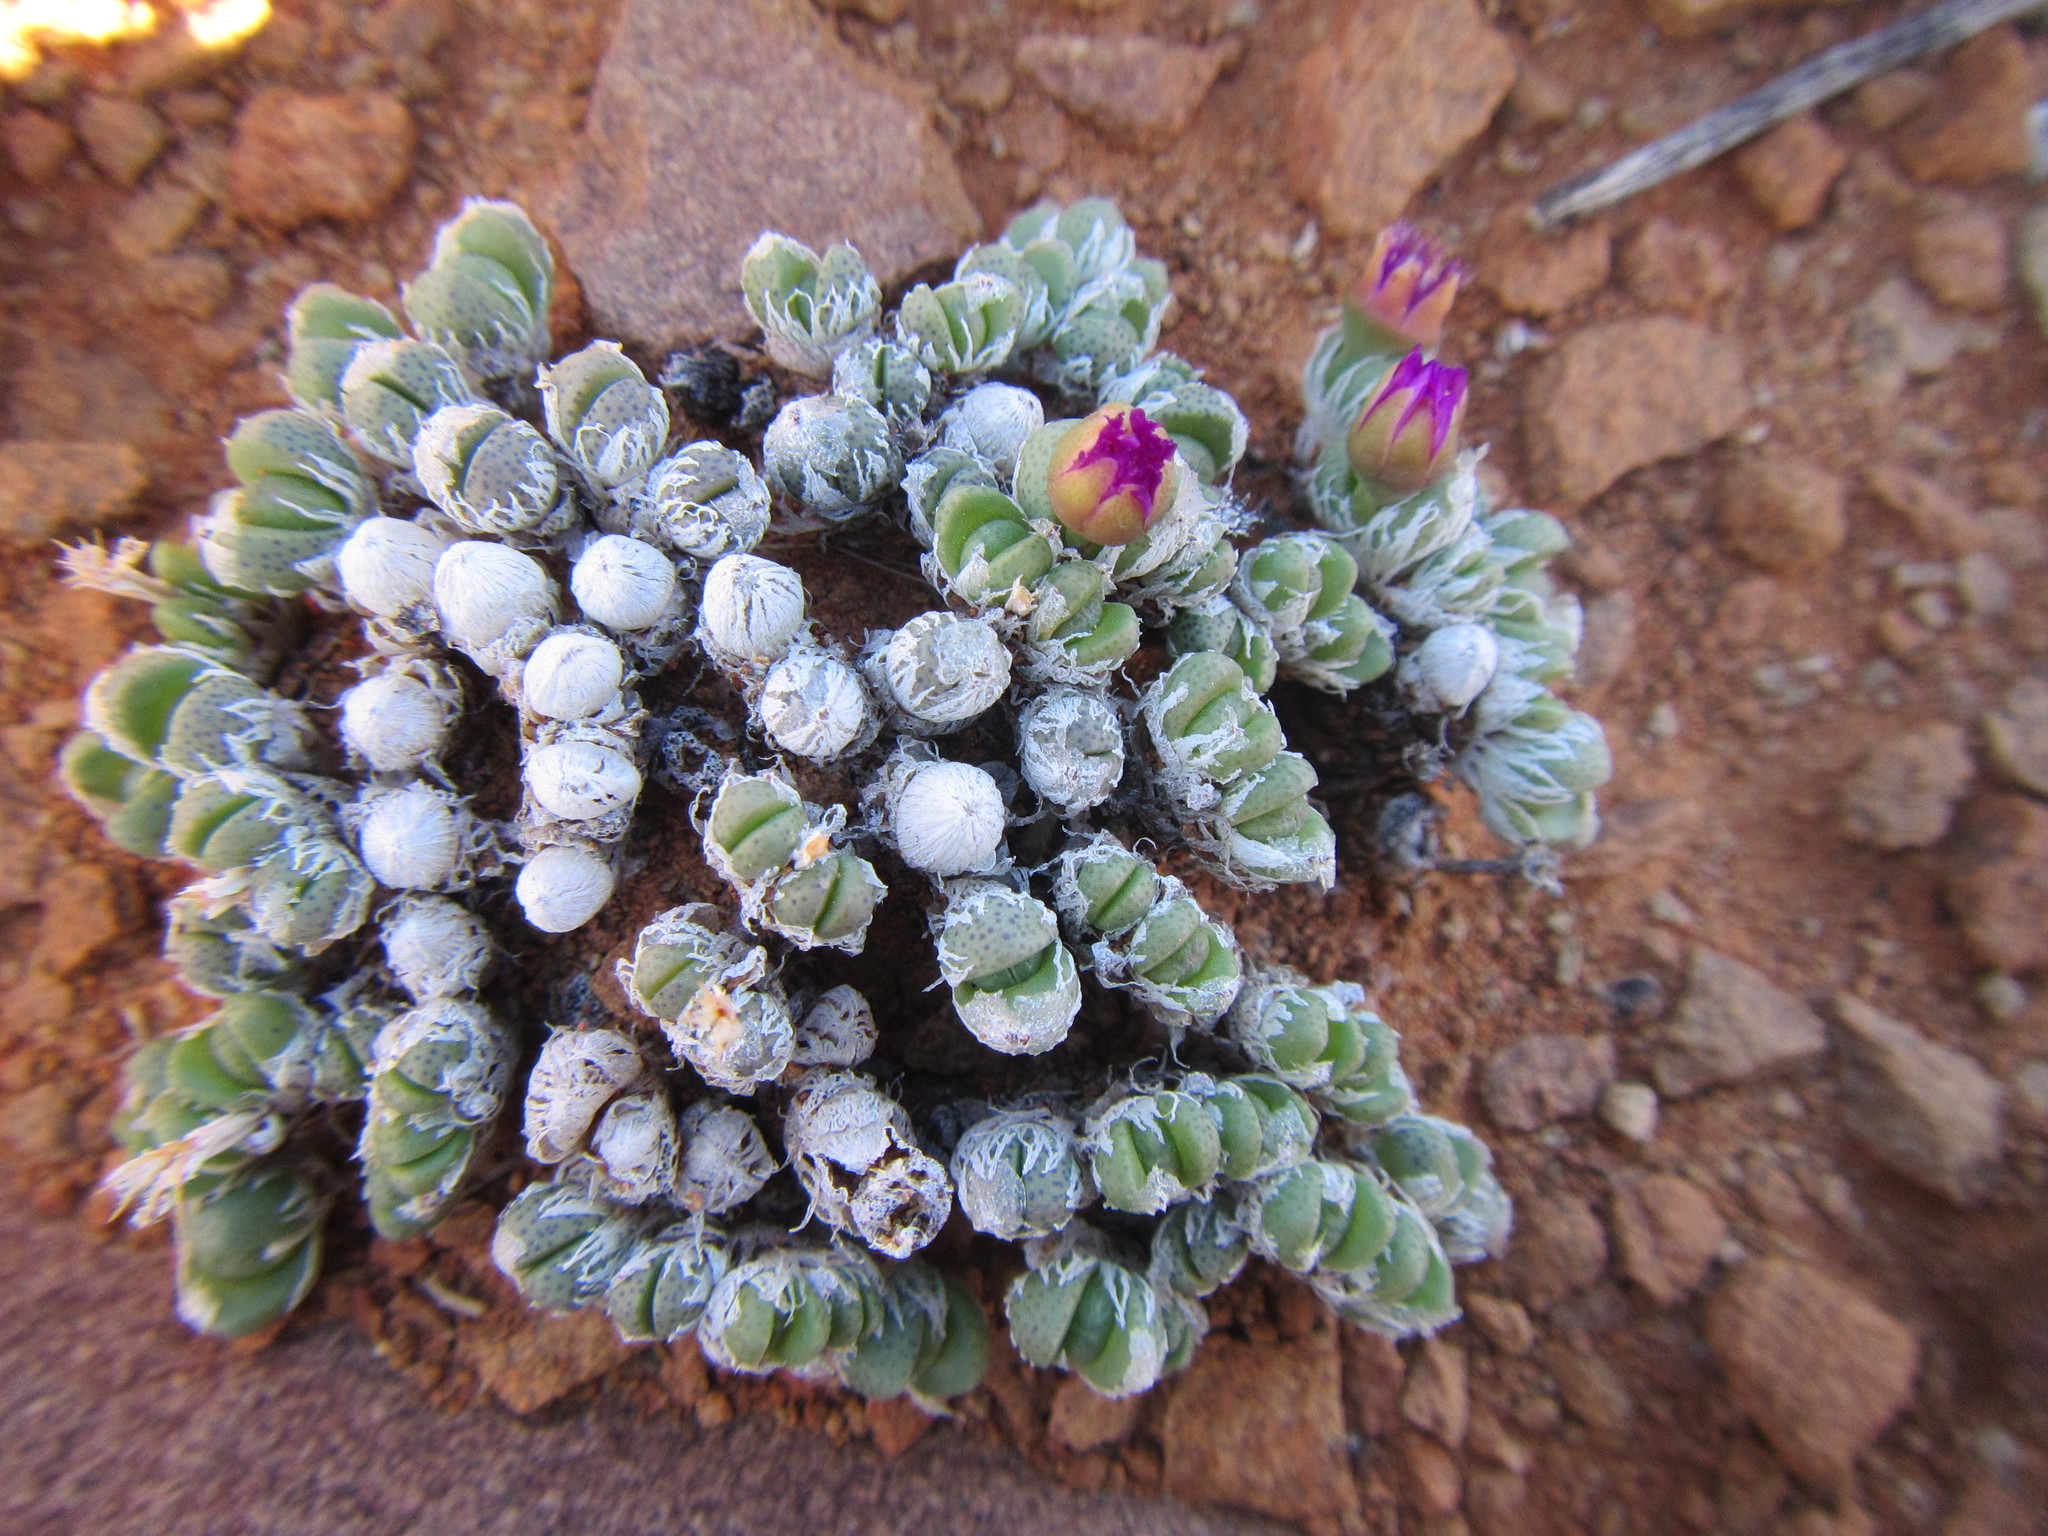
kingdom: Plantae
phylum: Tracheophyta
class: Magnoliopsida
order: Caryophyllales
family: Aizoaceae
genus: Antimima
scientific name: Antimima ivori
